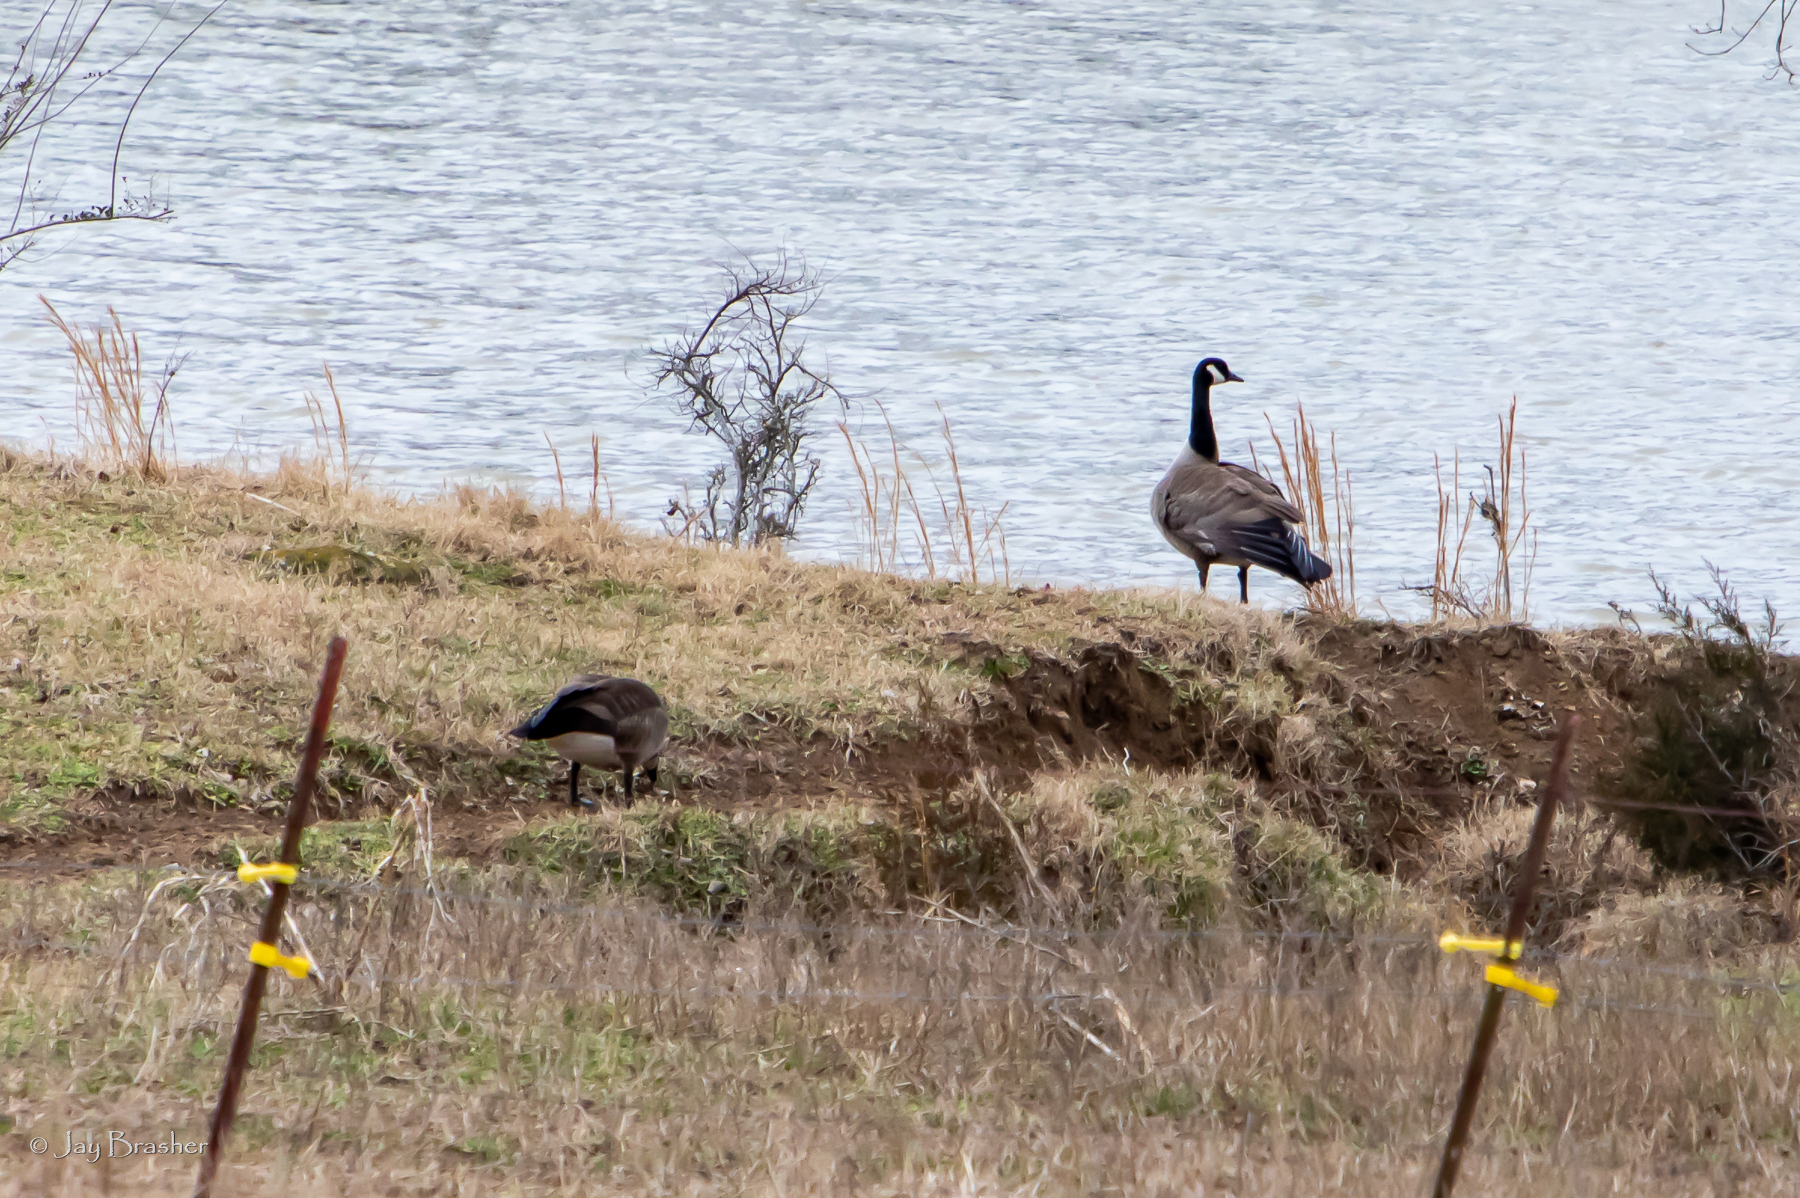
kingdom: Animalia
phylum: Chordata
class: Aves
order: Anseriformes
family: Anatidae
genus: Branta
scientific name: Branta canadensis
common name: Canada goose
